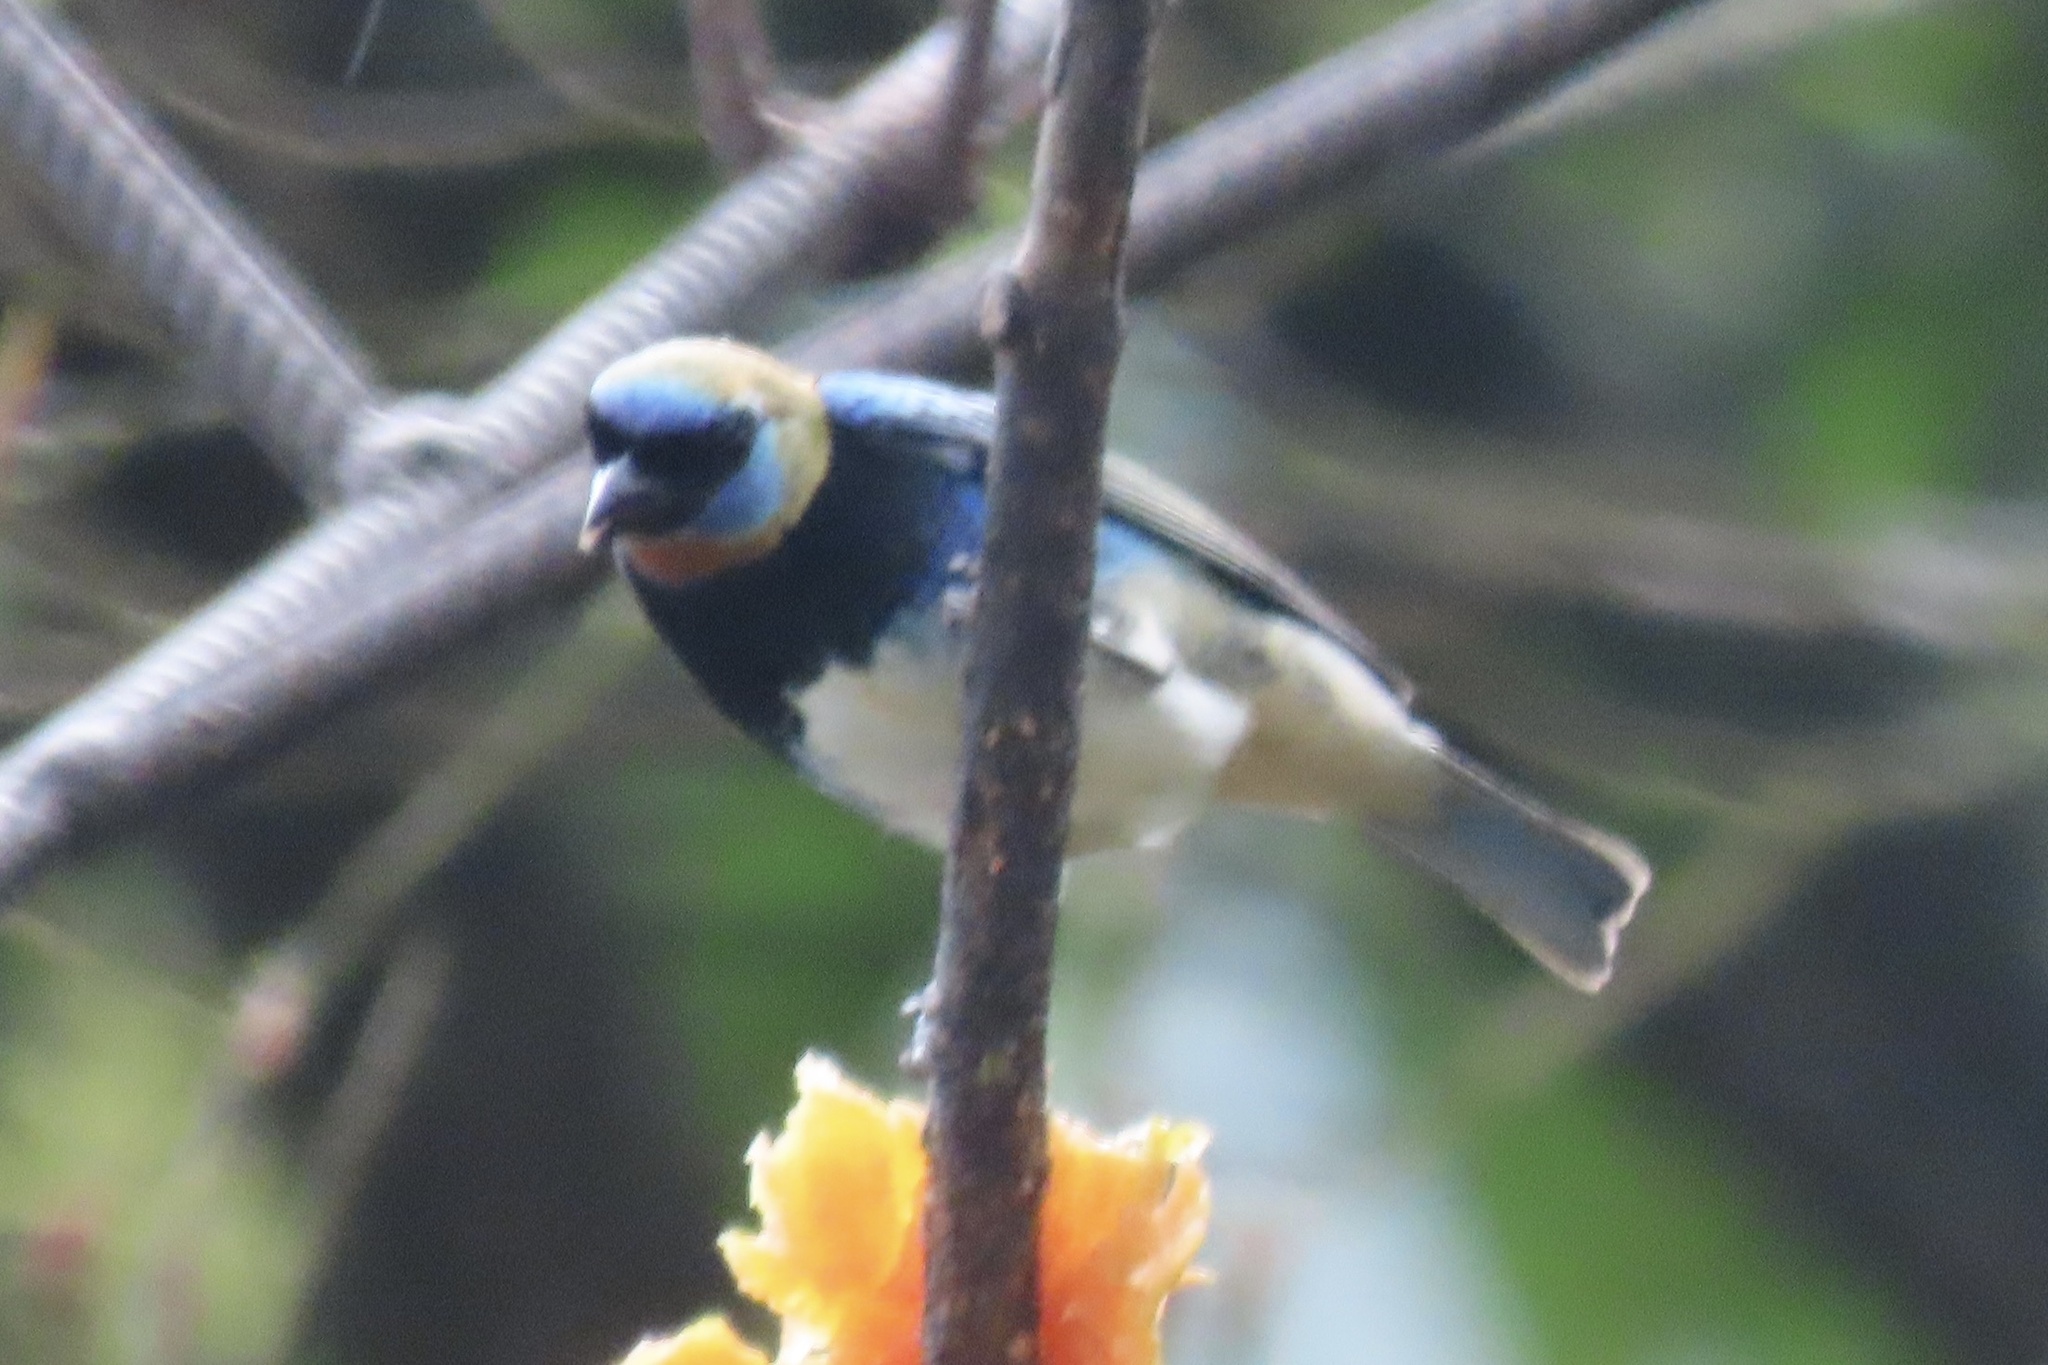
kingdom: Animalia
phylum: Chordata
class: Aves
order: Passeriformes
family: Thraupidae
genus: Stilpnia
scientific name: Stilpnia larvata
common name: Golden-hooded tanager
